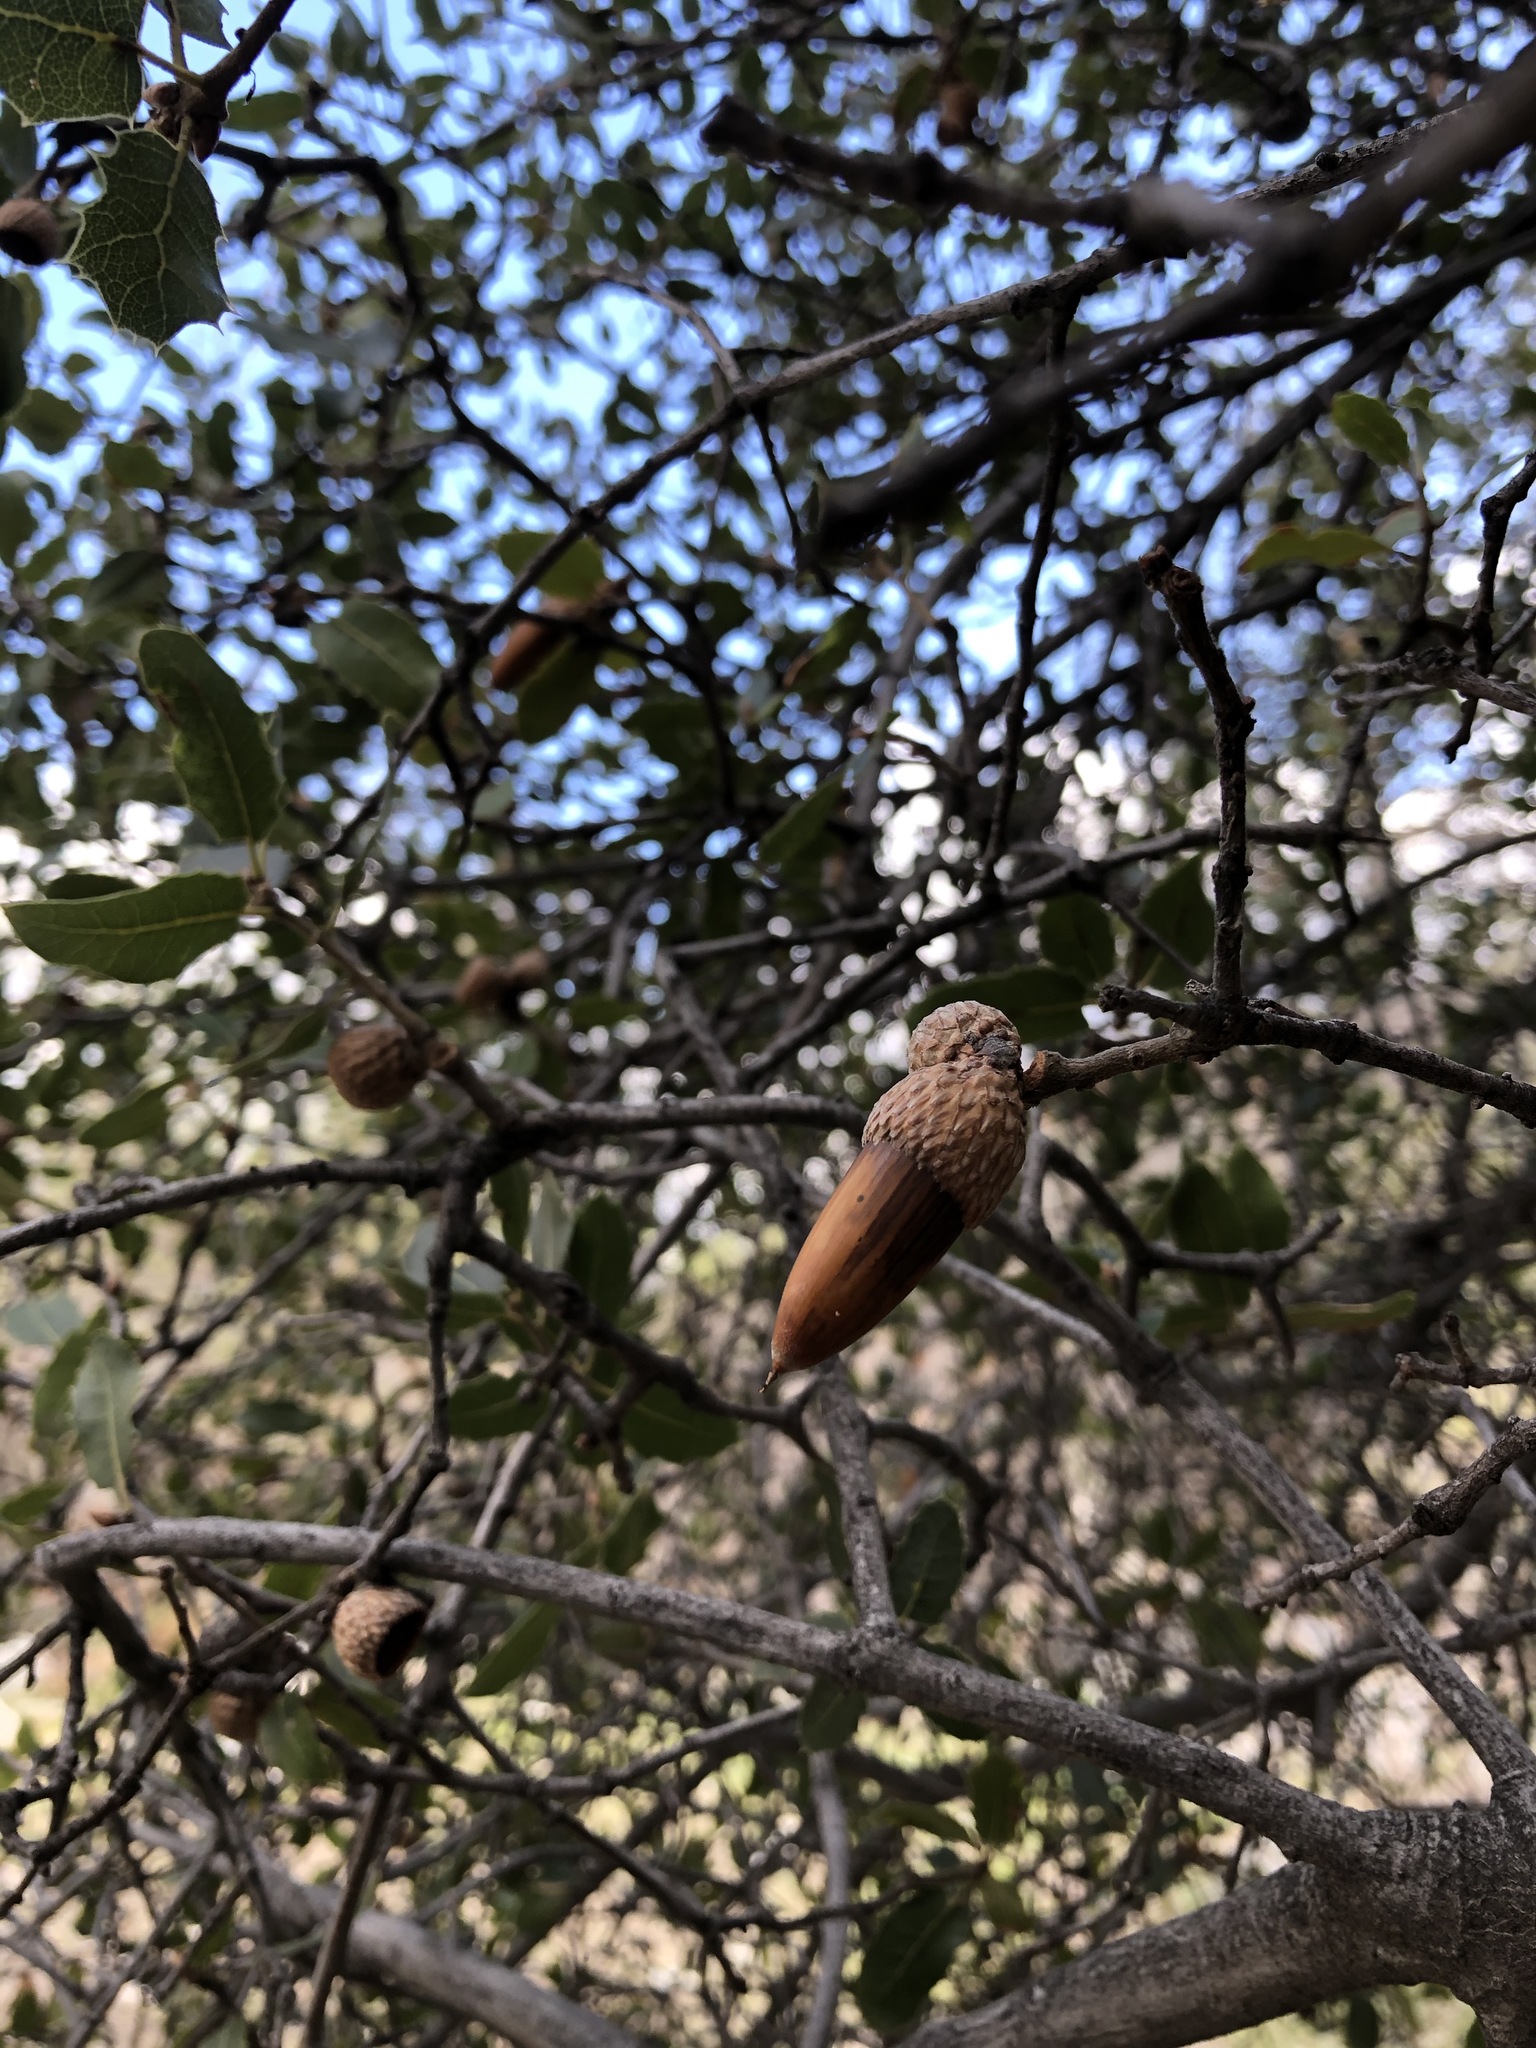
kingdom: Plantae
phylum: Tracheophyta
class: Magnoliopsida
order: Fagales
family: Fagaceae
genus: Quercus
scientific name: Quercus wislizeni
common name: Interior live oak
